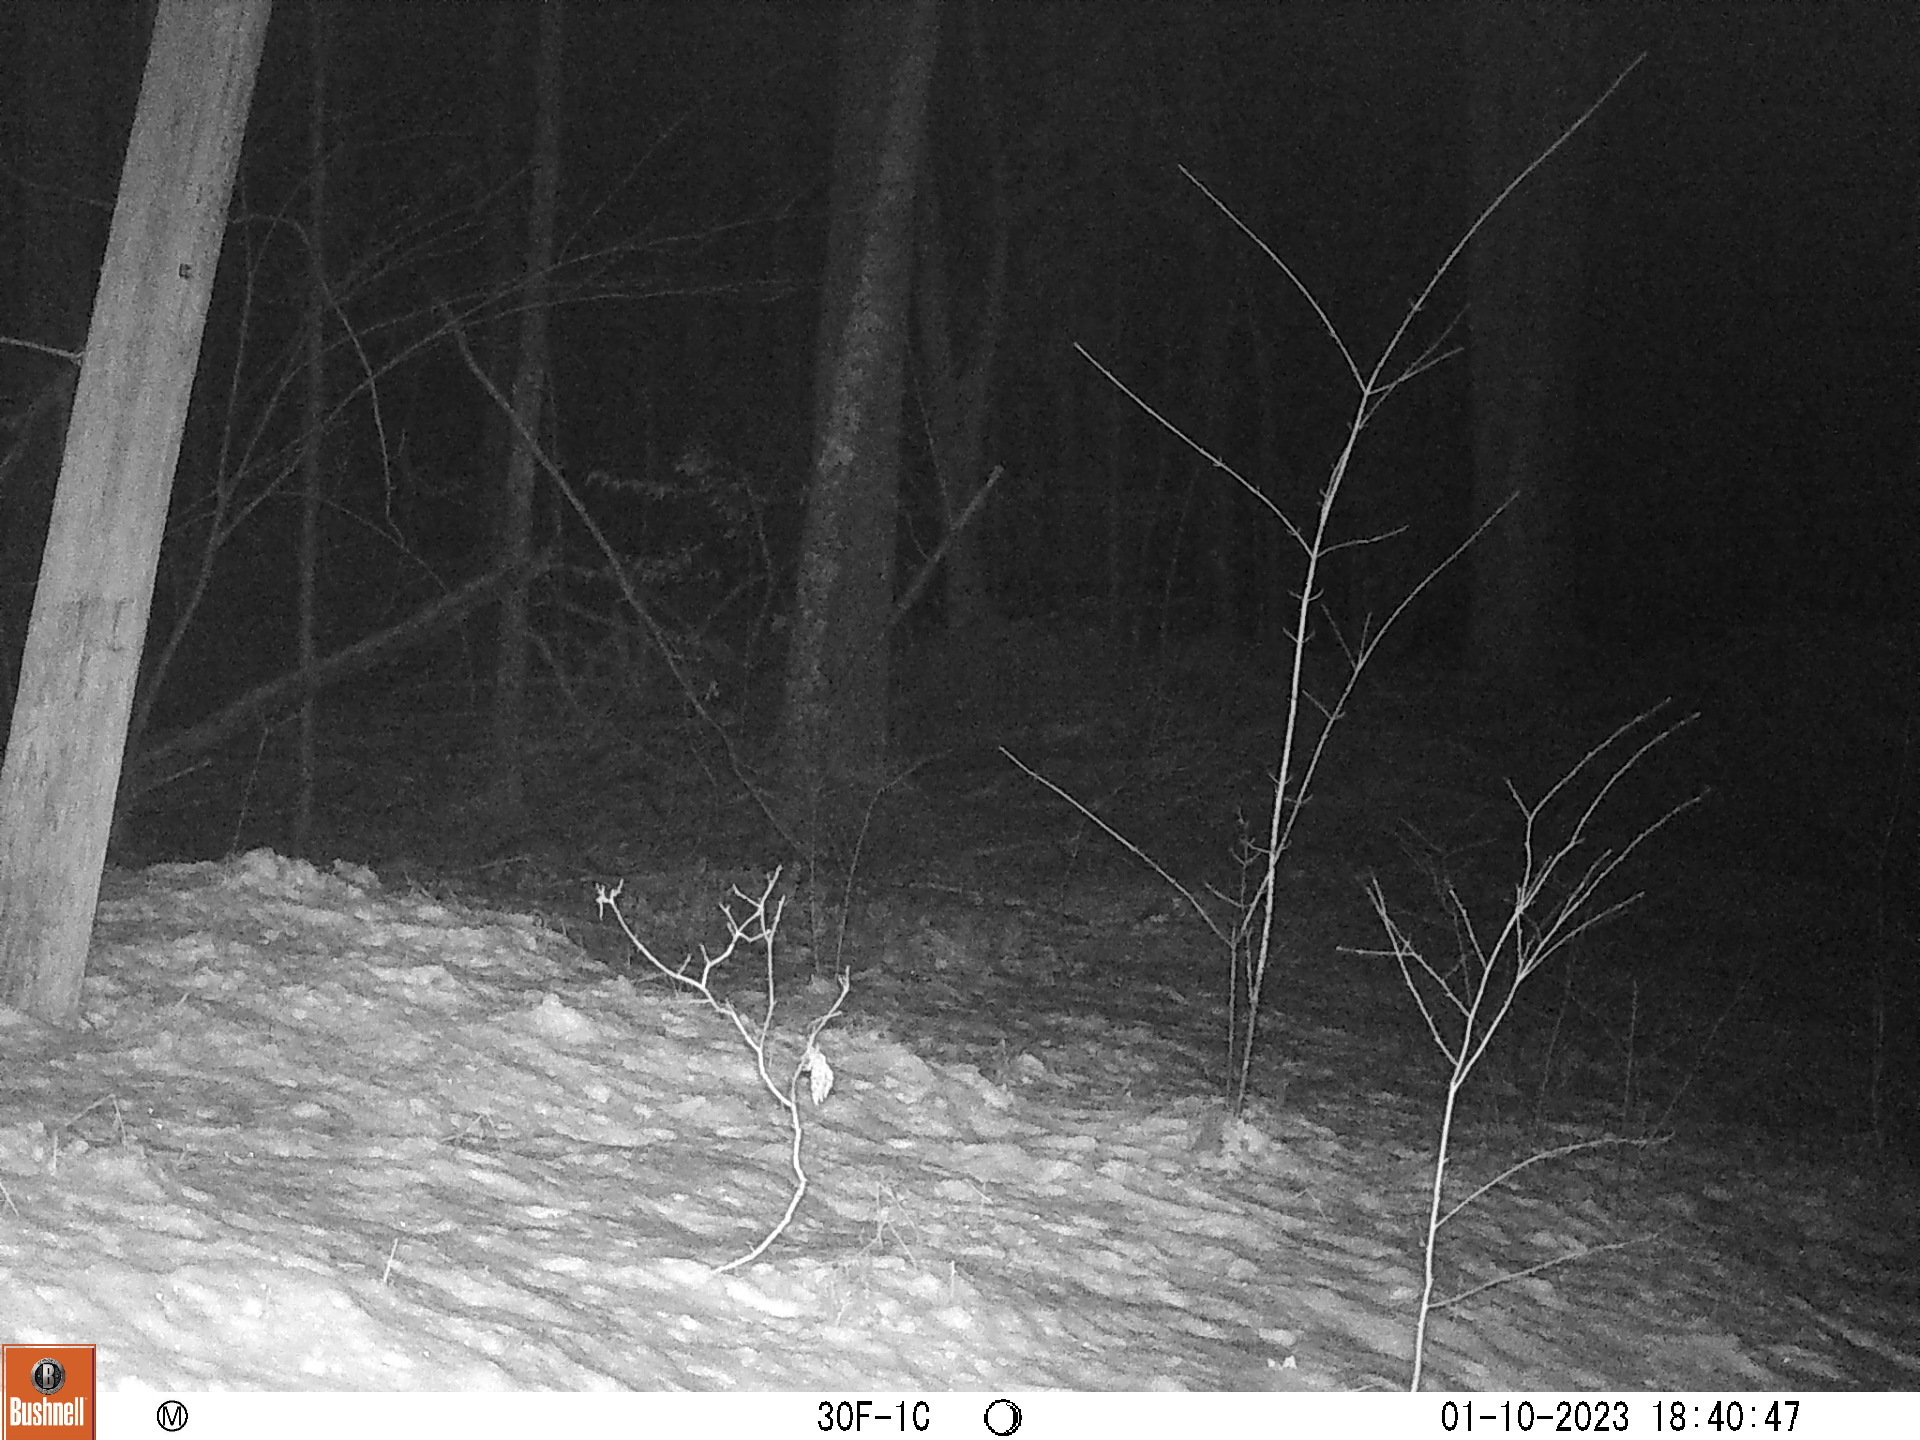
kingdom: Animalia
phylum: Chordata
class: Mammalia
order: Carnivora
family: Canidae
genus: Urocyon
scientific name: Urocyon cinereoargenteus
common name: Gray fox
